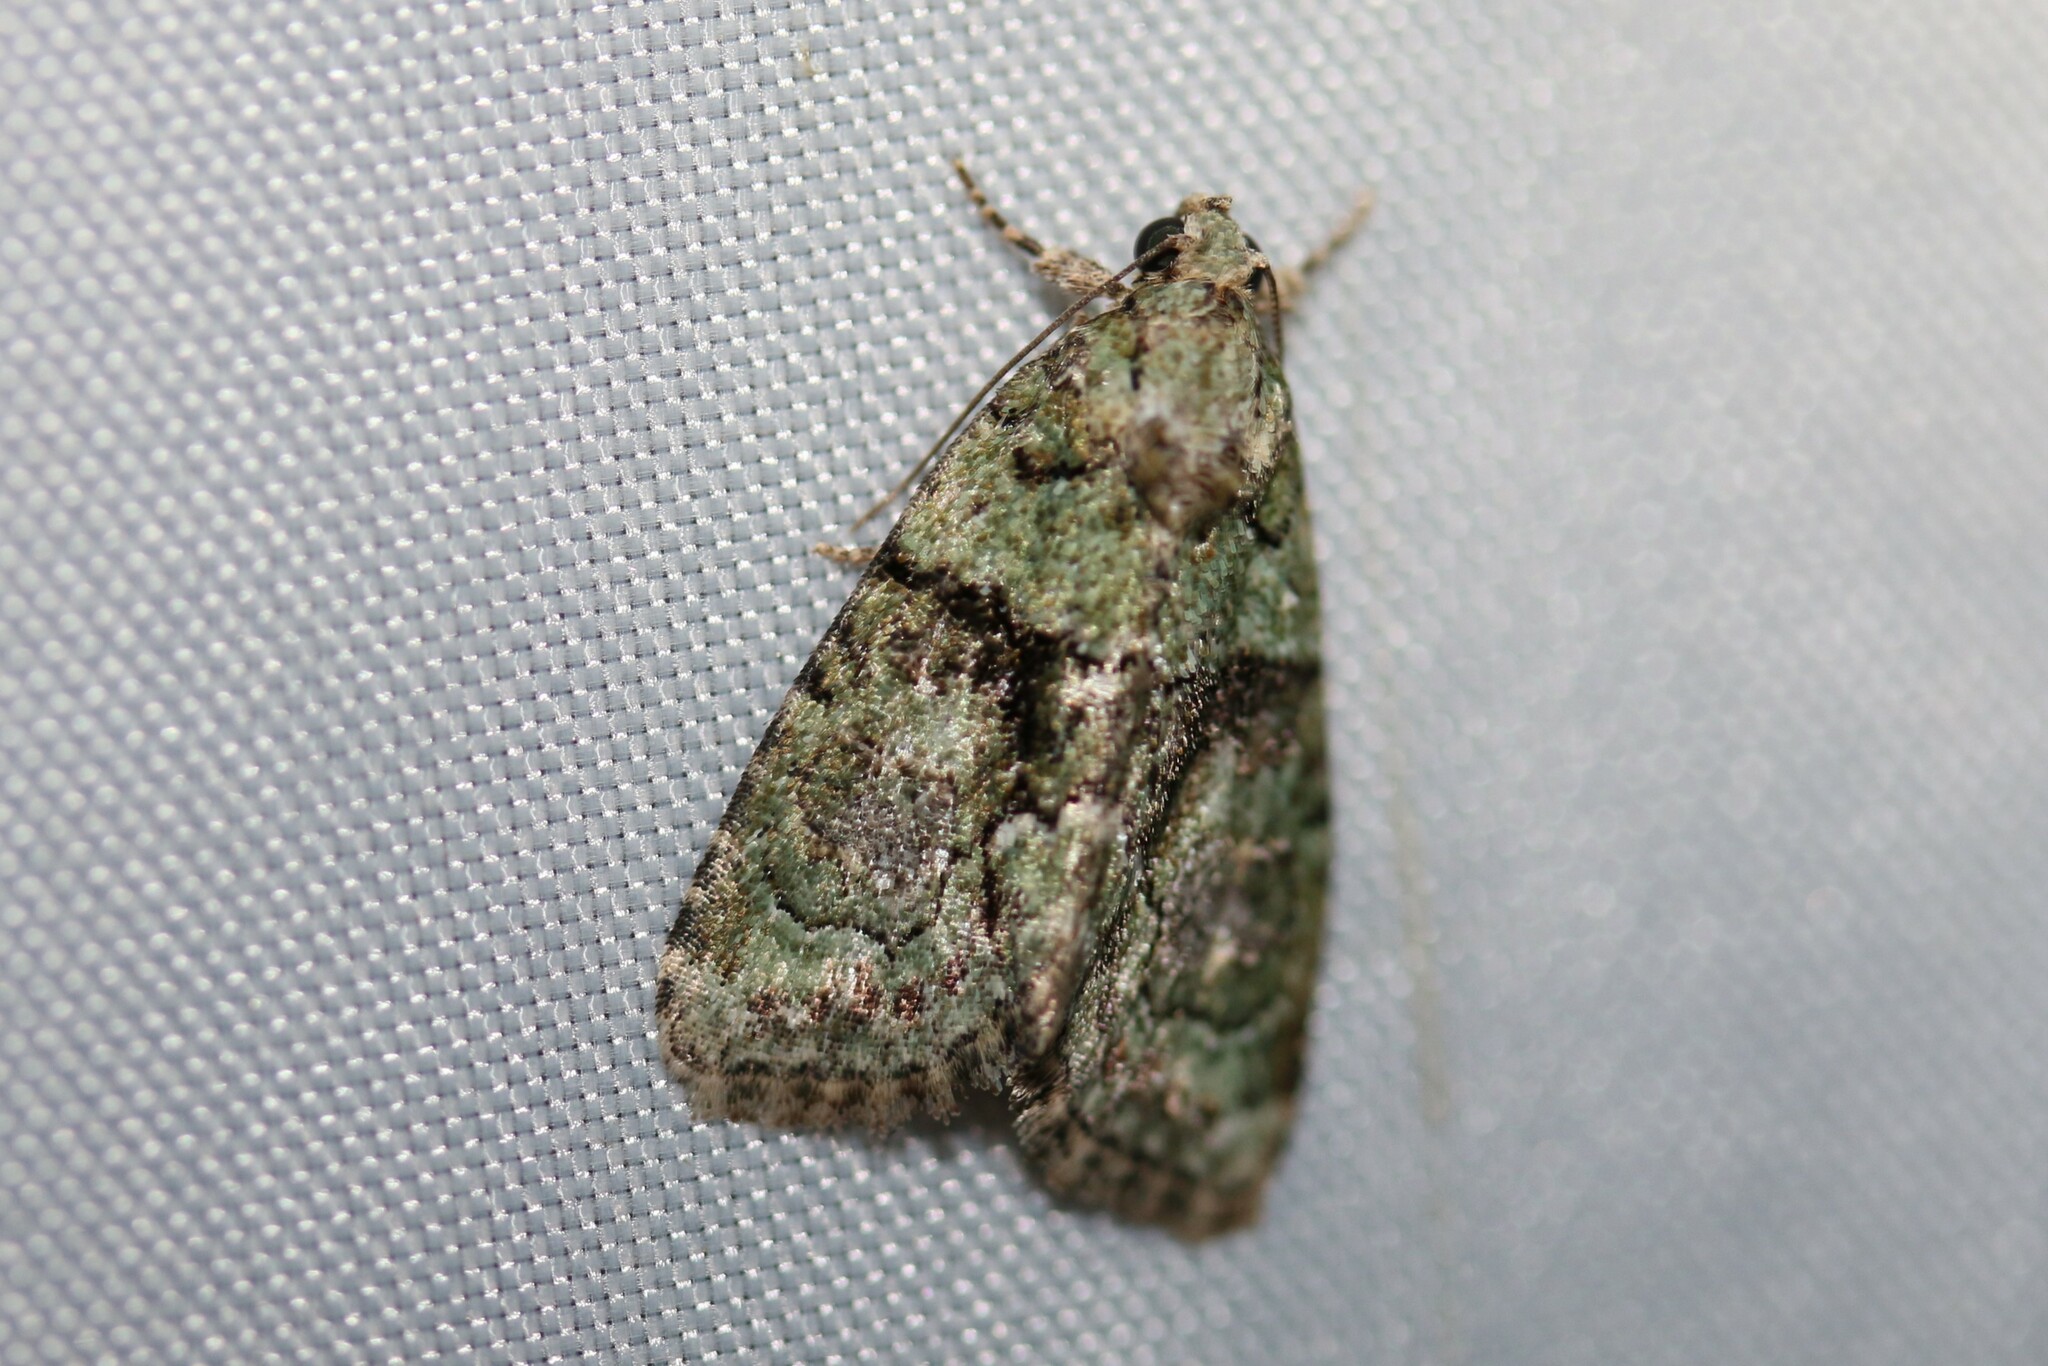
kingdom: Animalia
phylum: Arthropoda
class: Insecta
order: Lepidoptera
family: Noctuidae
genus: Cryphia
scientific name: Cryphia algae
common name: Tree-lichen beauty
